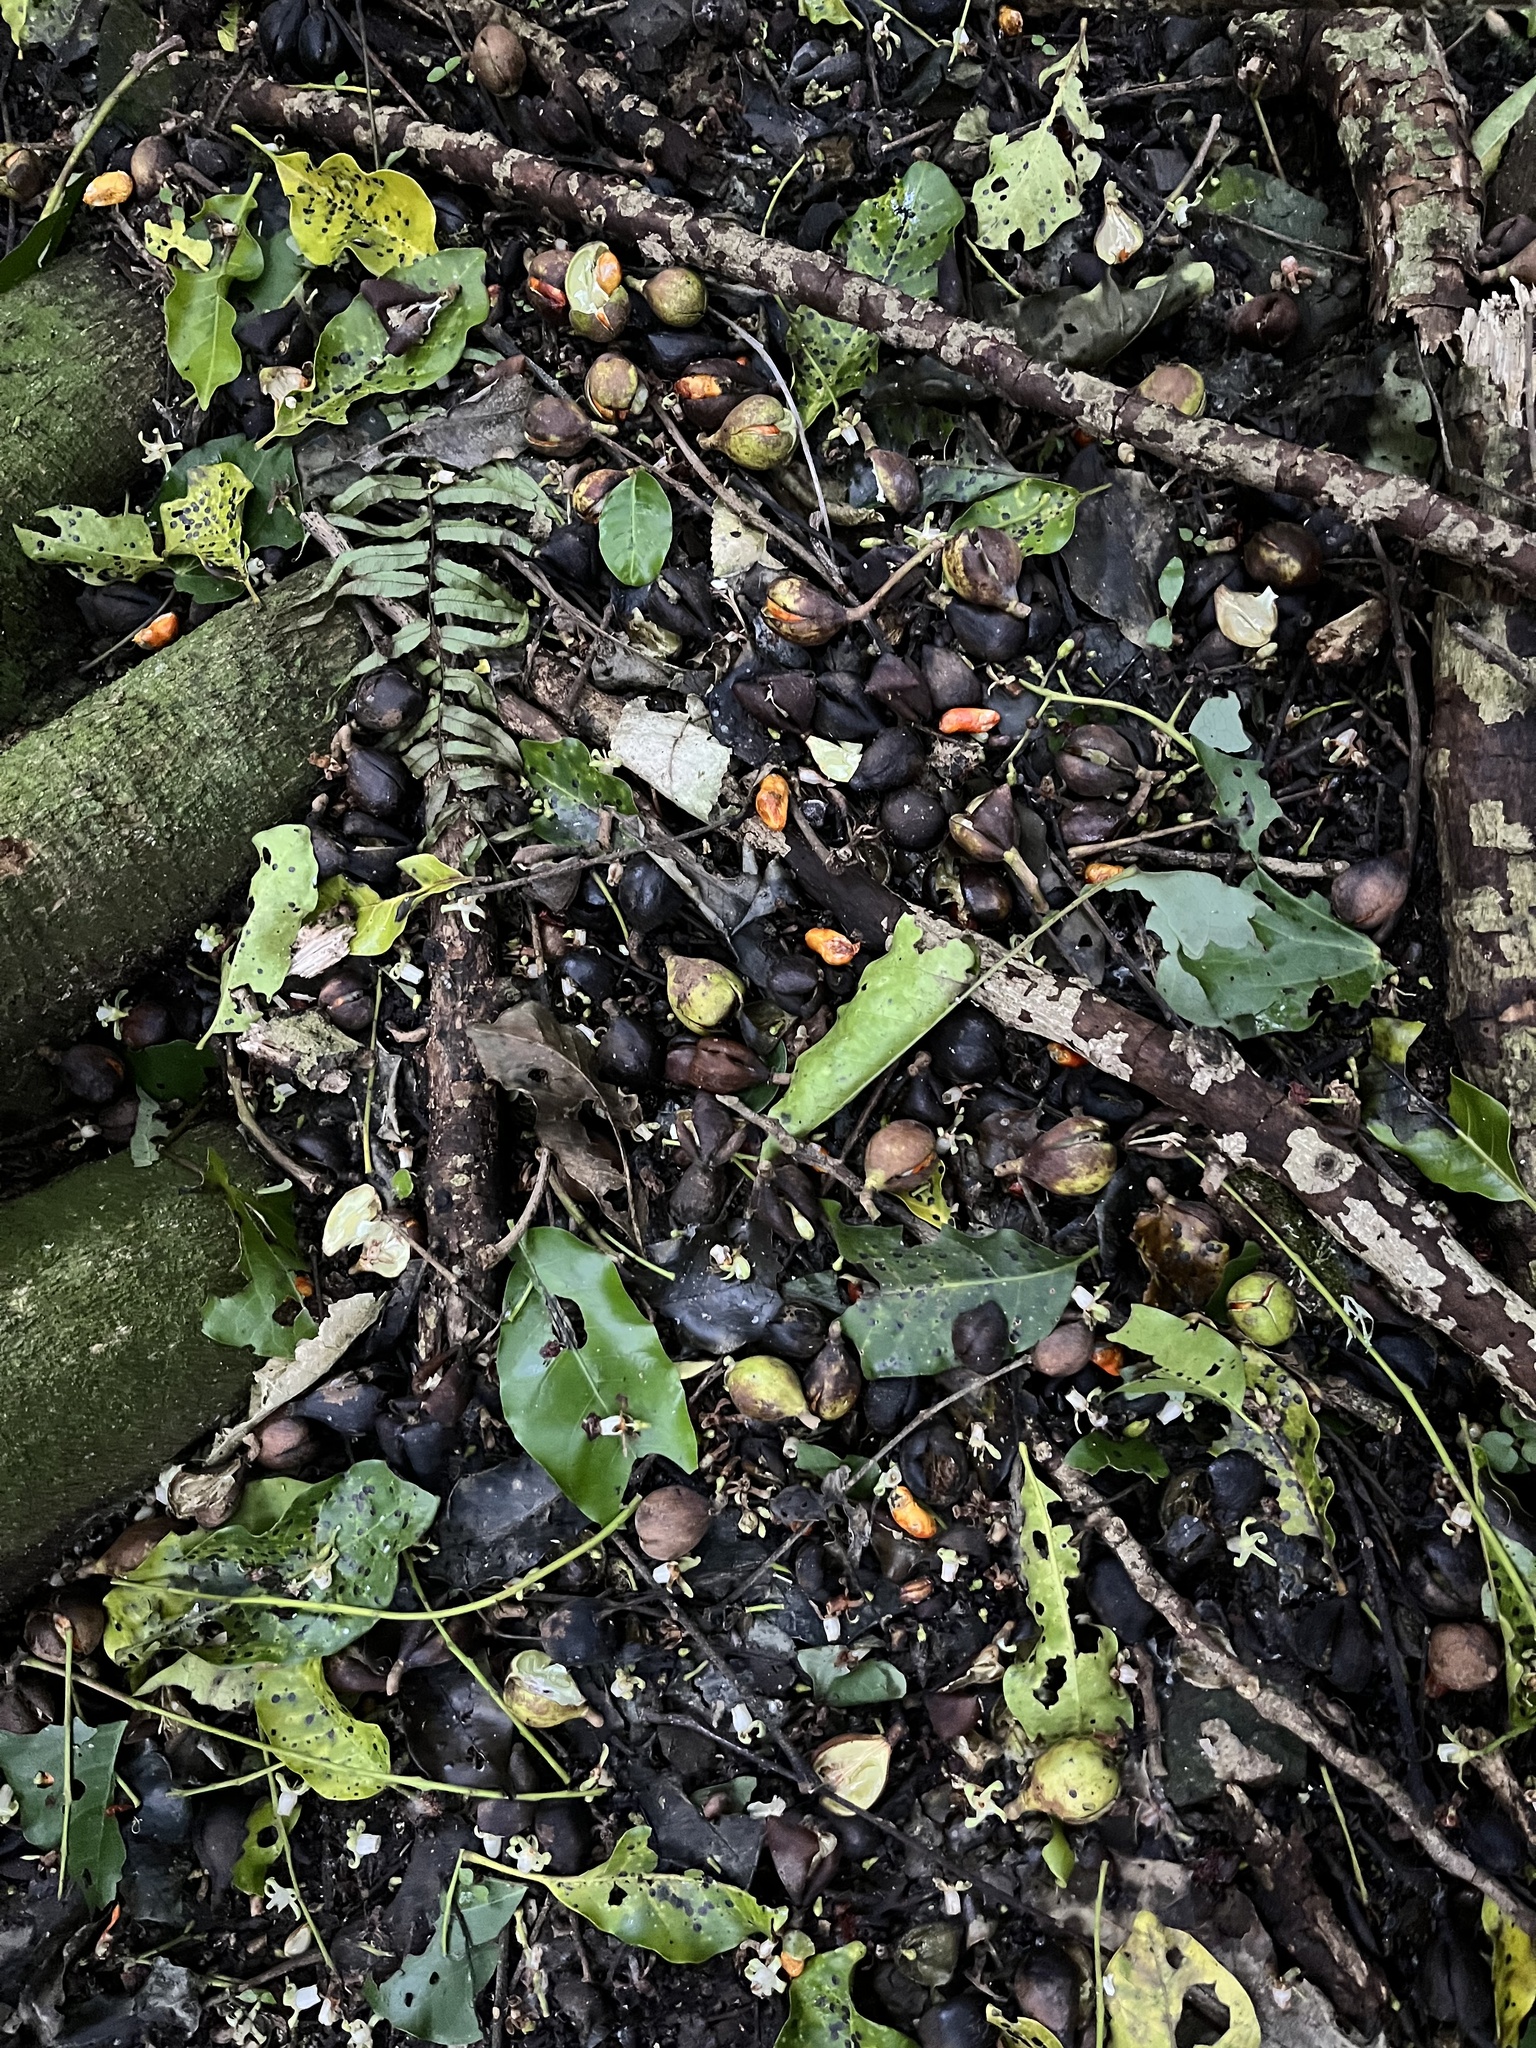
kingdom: Plantae
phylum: Tracheophyta
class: Magnoliopsida
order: Sapindales
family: Meliaceae
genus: Didymocheton
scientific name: Didymocheton spectabilis
